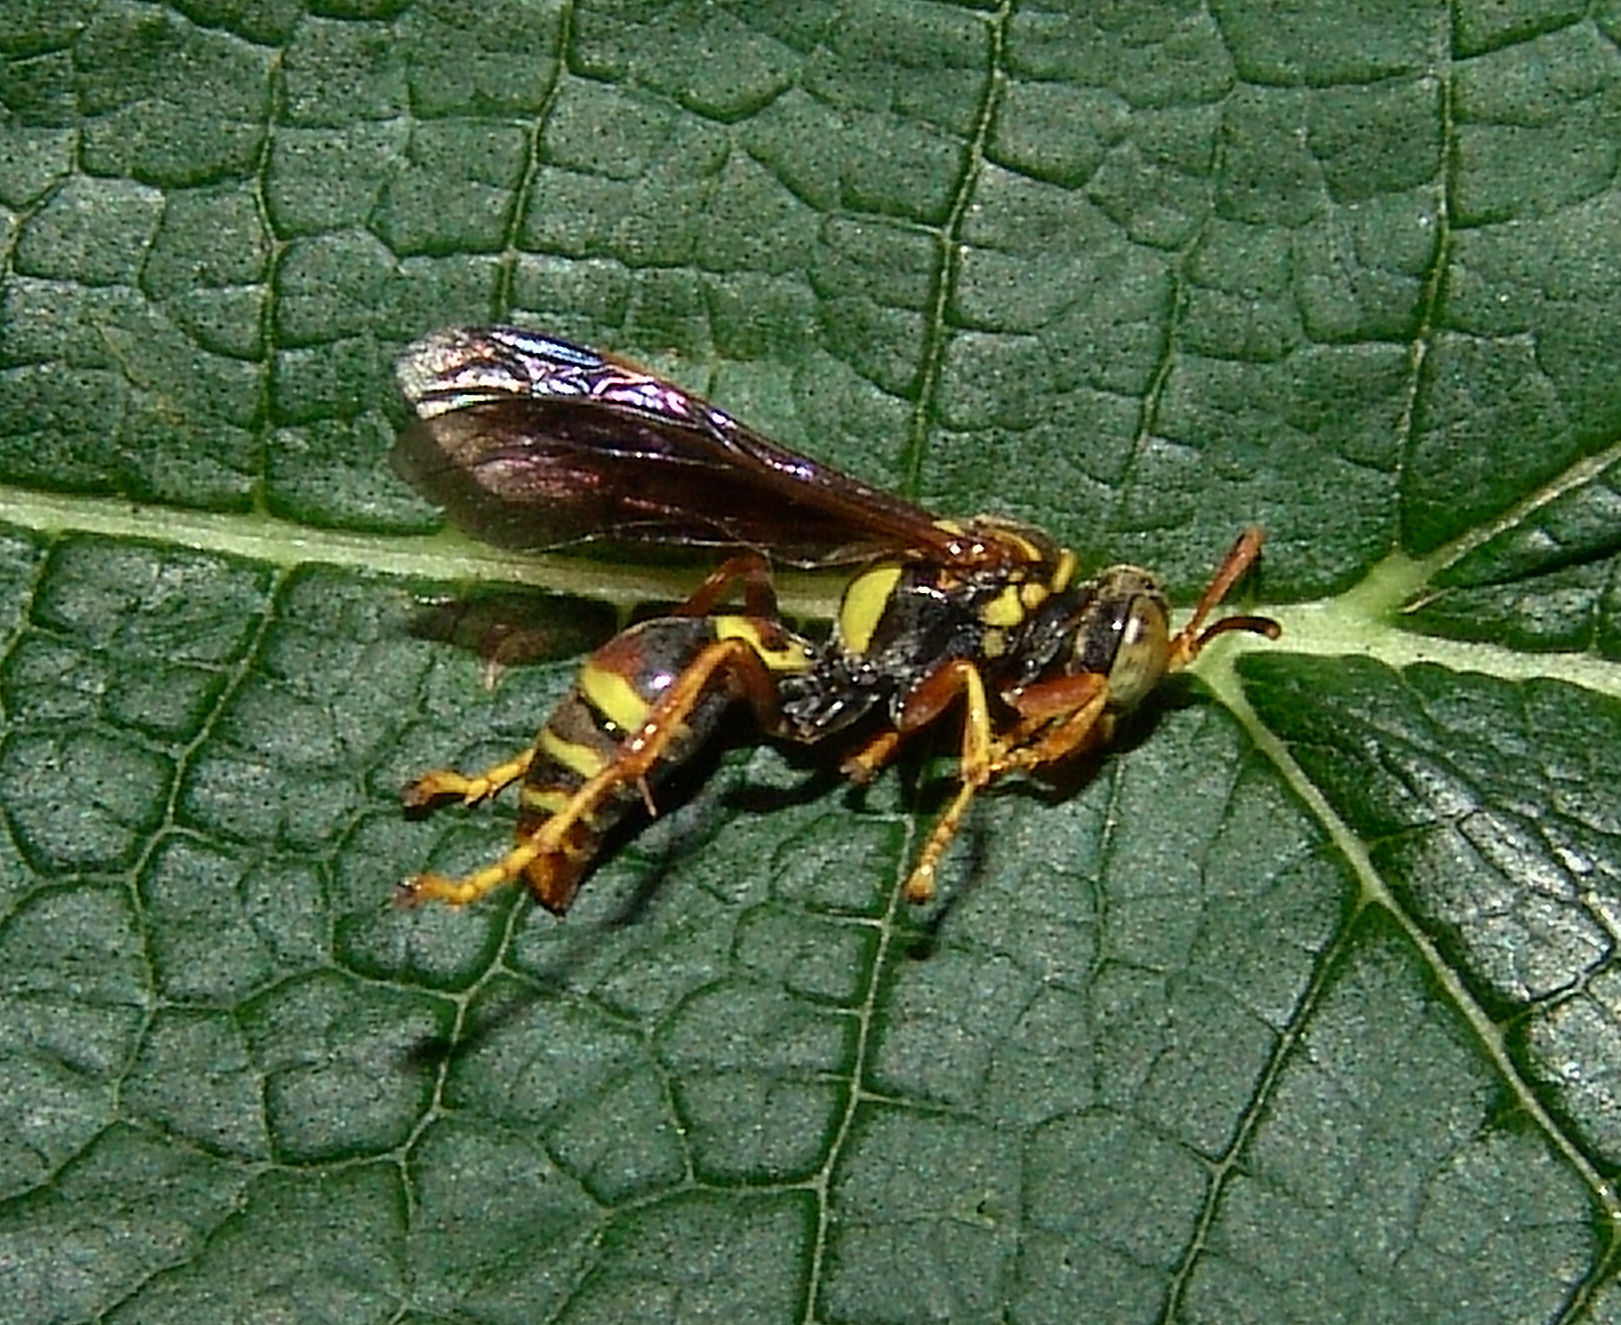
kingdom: Animalia
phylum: Arthropoda
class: Insecta
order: Hymenoptera
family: Crabronidae
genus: Saygorytes
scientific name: Saygorytes phaleratus
